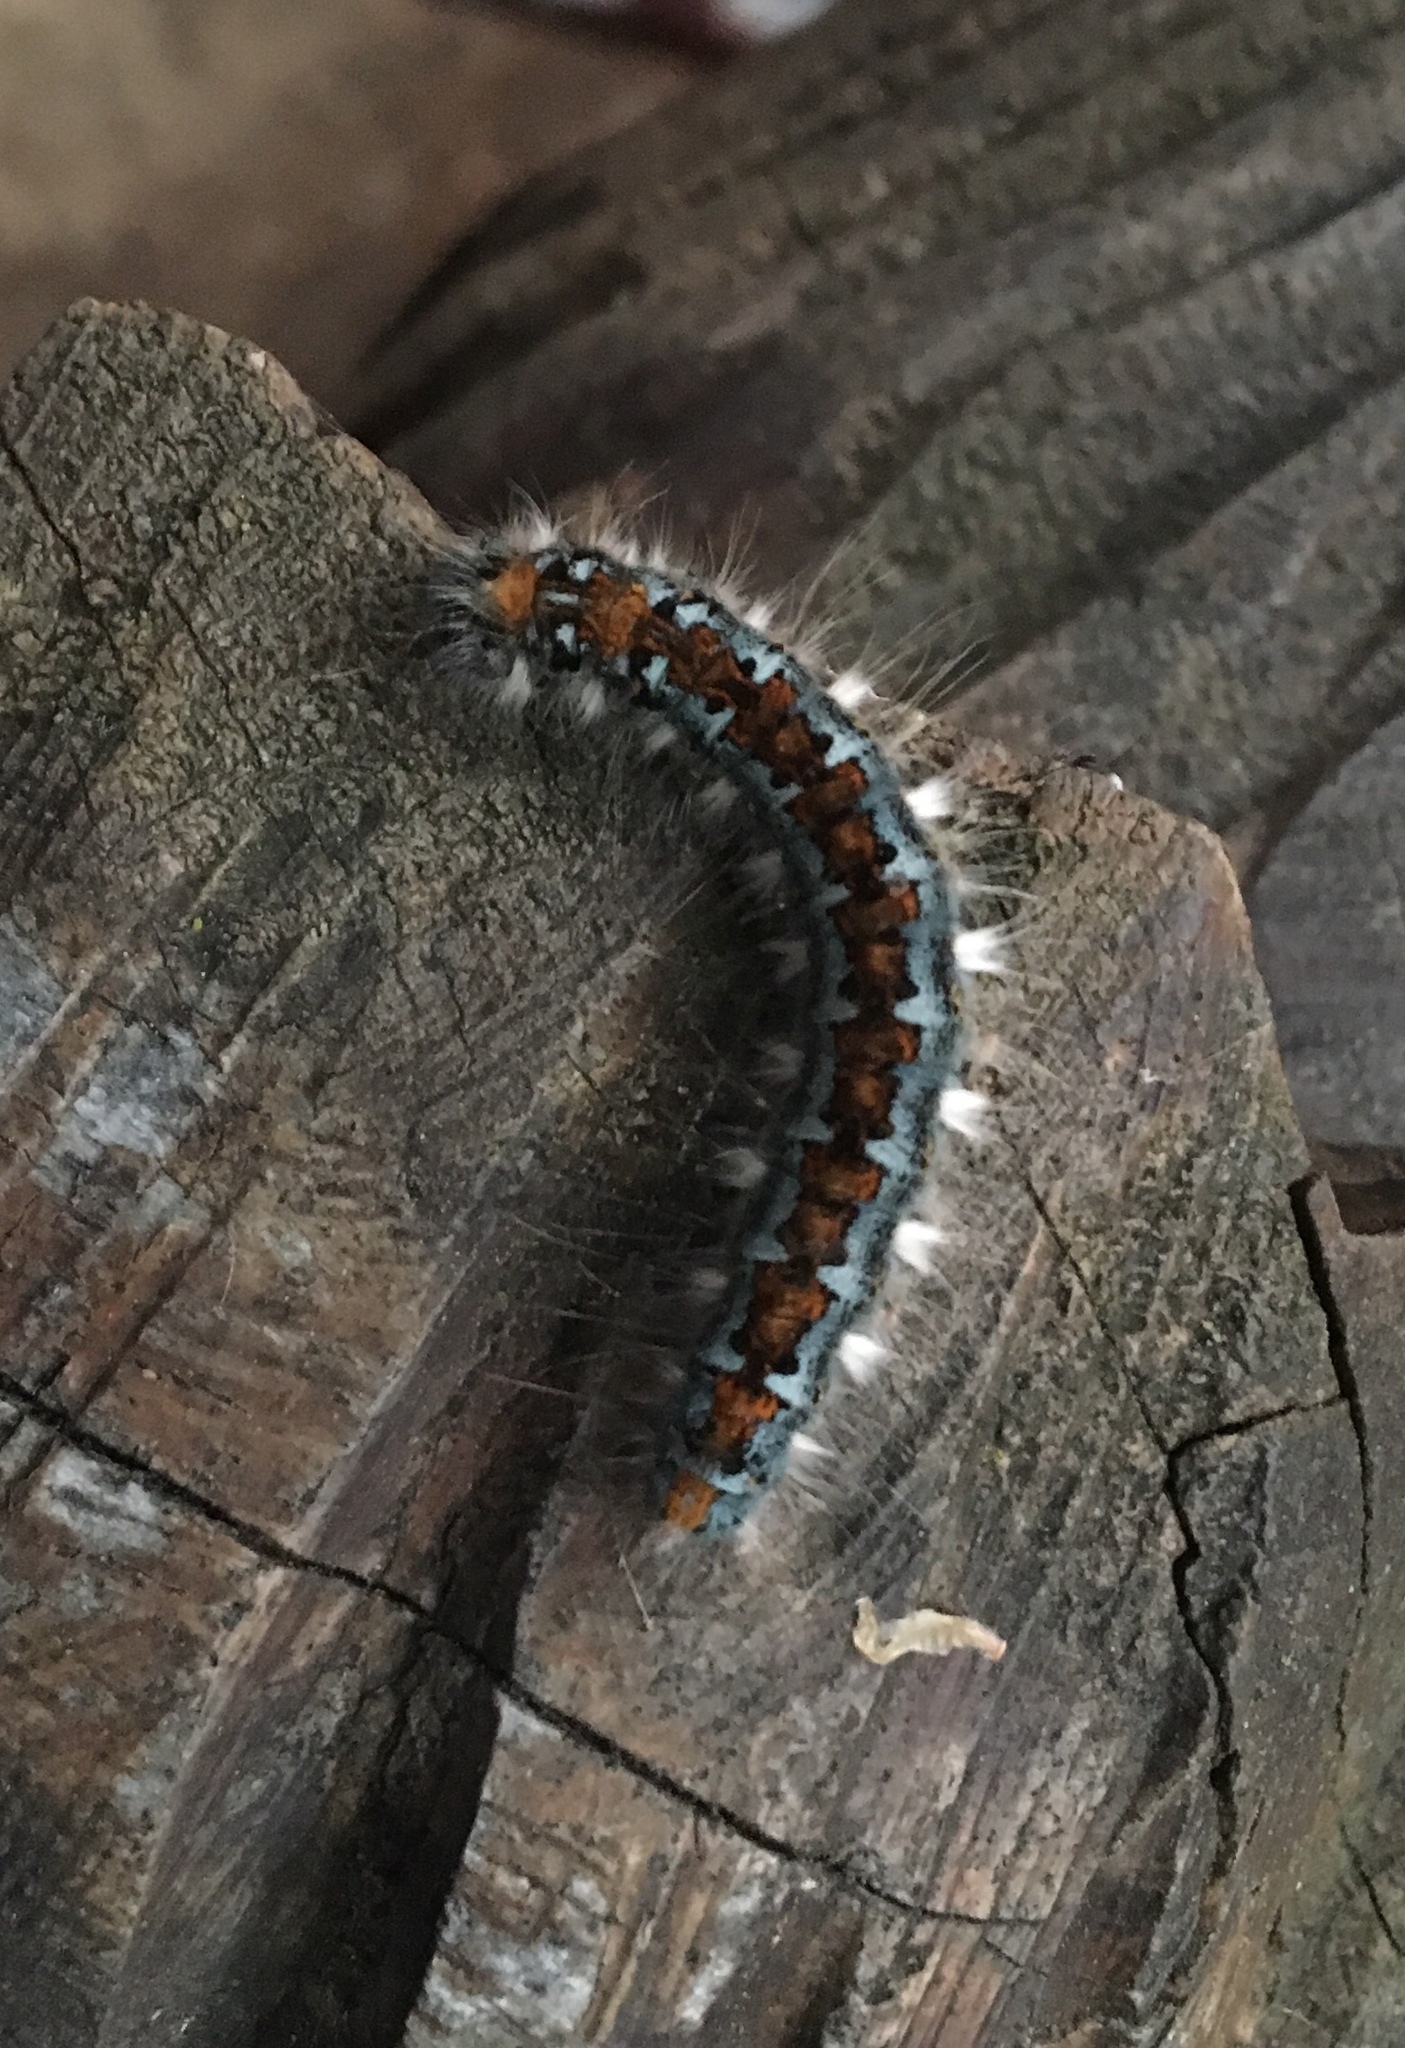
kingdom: Animalia
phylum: Arthropoda
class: Insecta
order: Lepidoptera
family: Lasiocampidae
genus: Malacosoma
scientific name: Malacosoma constricta
